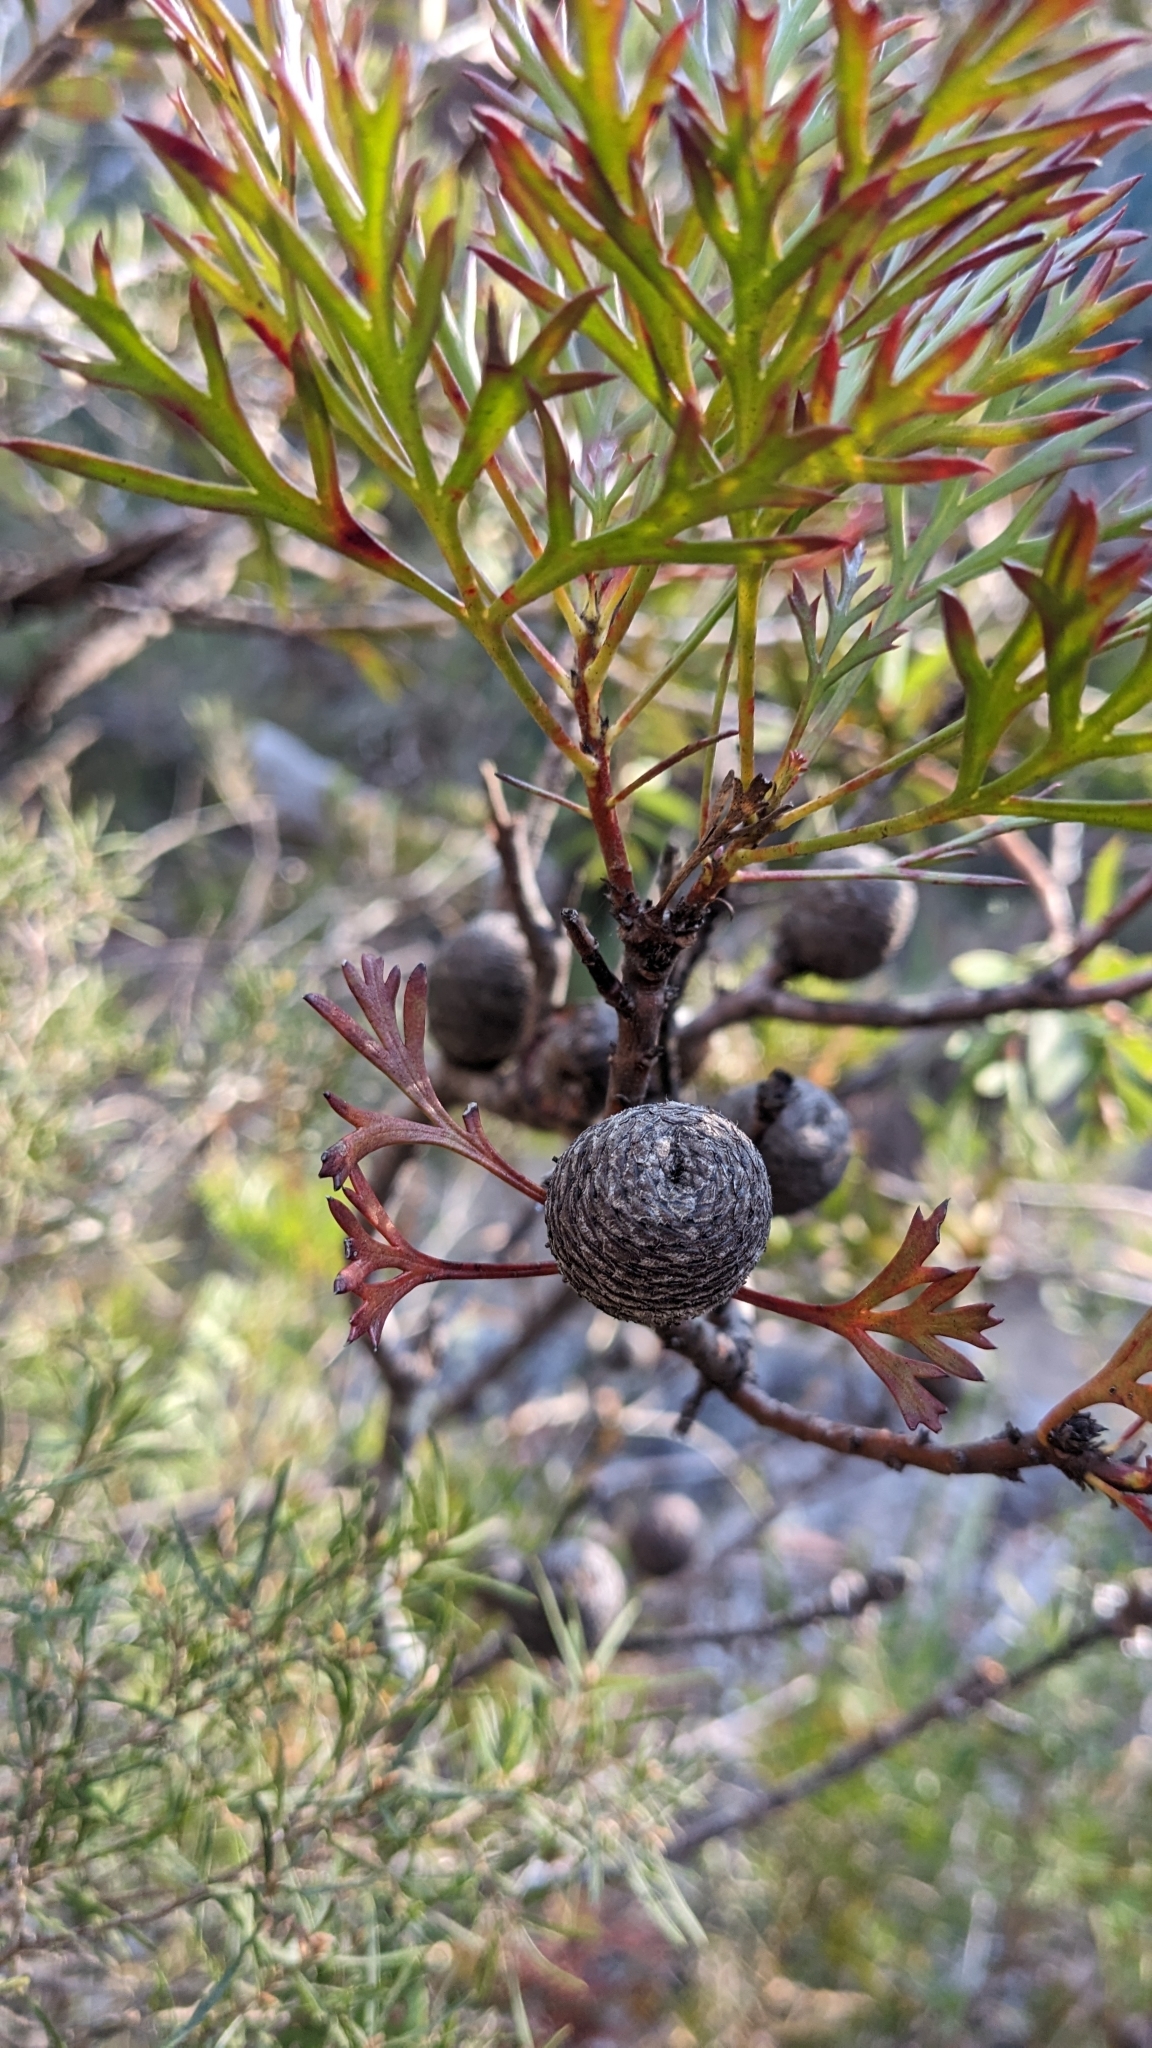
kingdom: Plantae
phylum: Tracheophyta
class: Magnoliopsida
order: Proteales
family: Proteaceae
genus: Isopogon
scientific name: Isopogon anemonifolius
